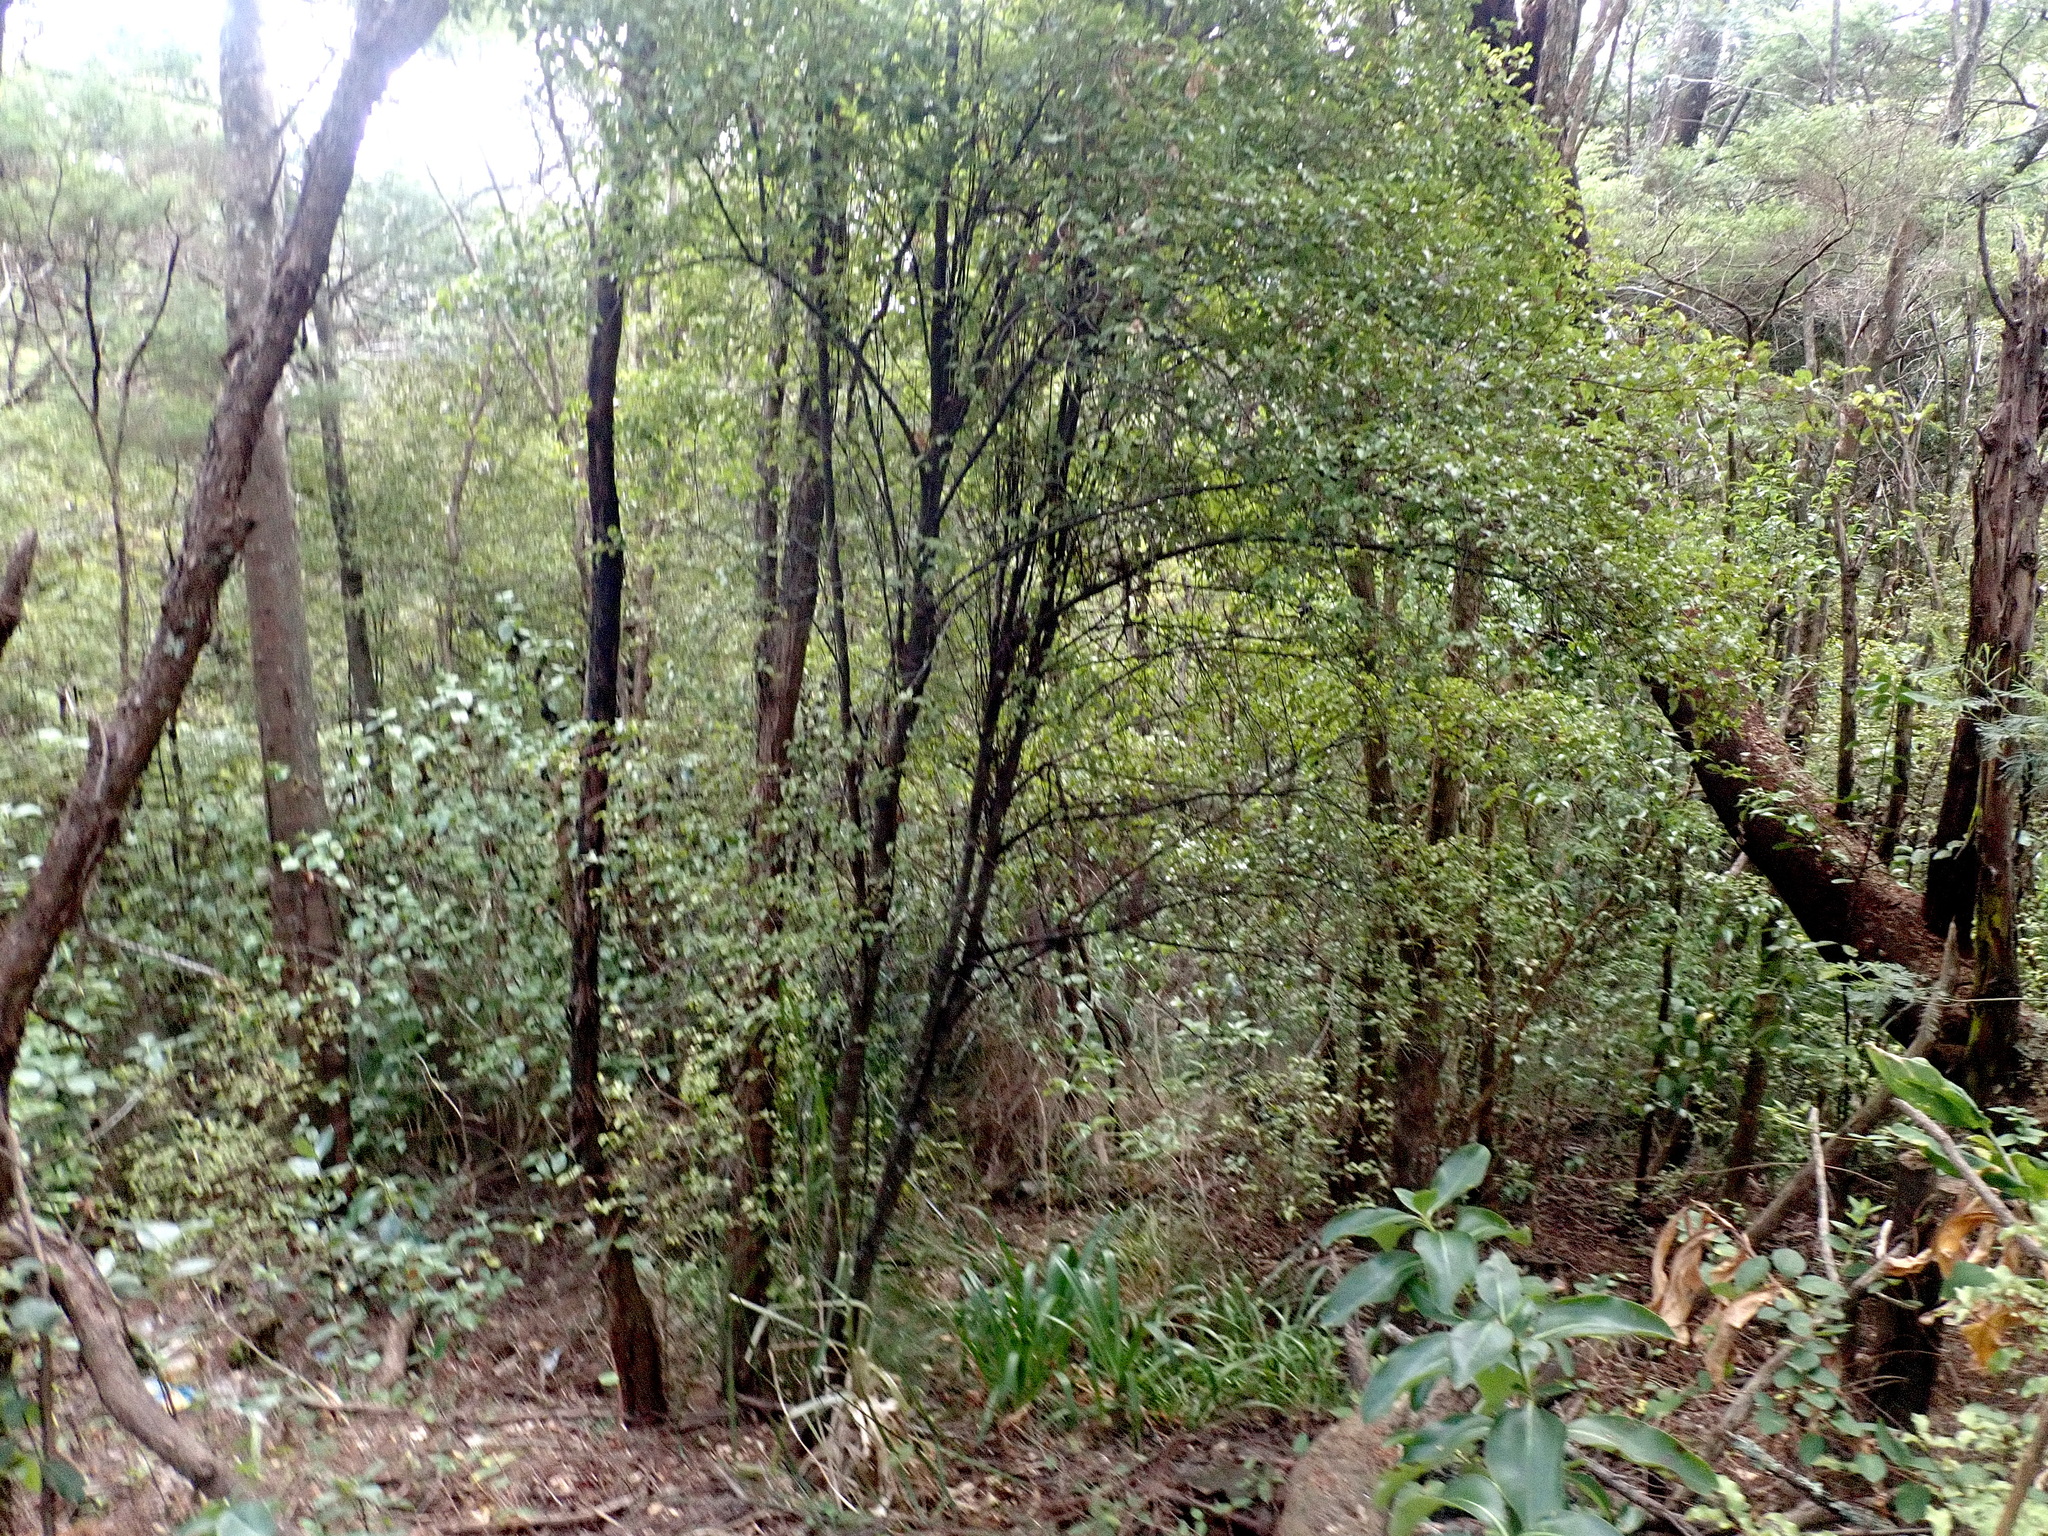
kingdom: Plantae
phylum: Tracheophyta
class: Magnoliopsida
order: Apiales
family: Pittosporaceae
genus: Pittosporum
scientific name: Pittosporum tenuifolium
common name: Kohuhu
